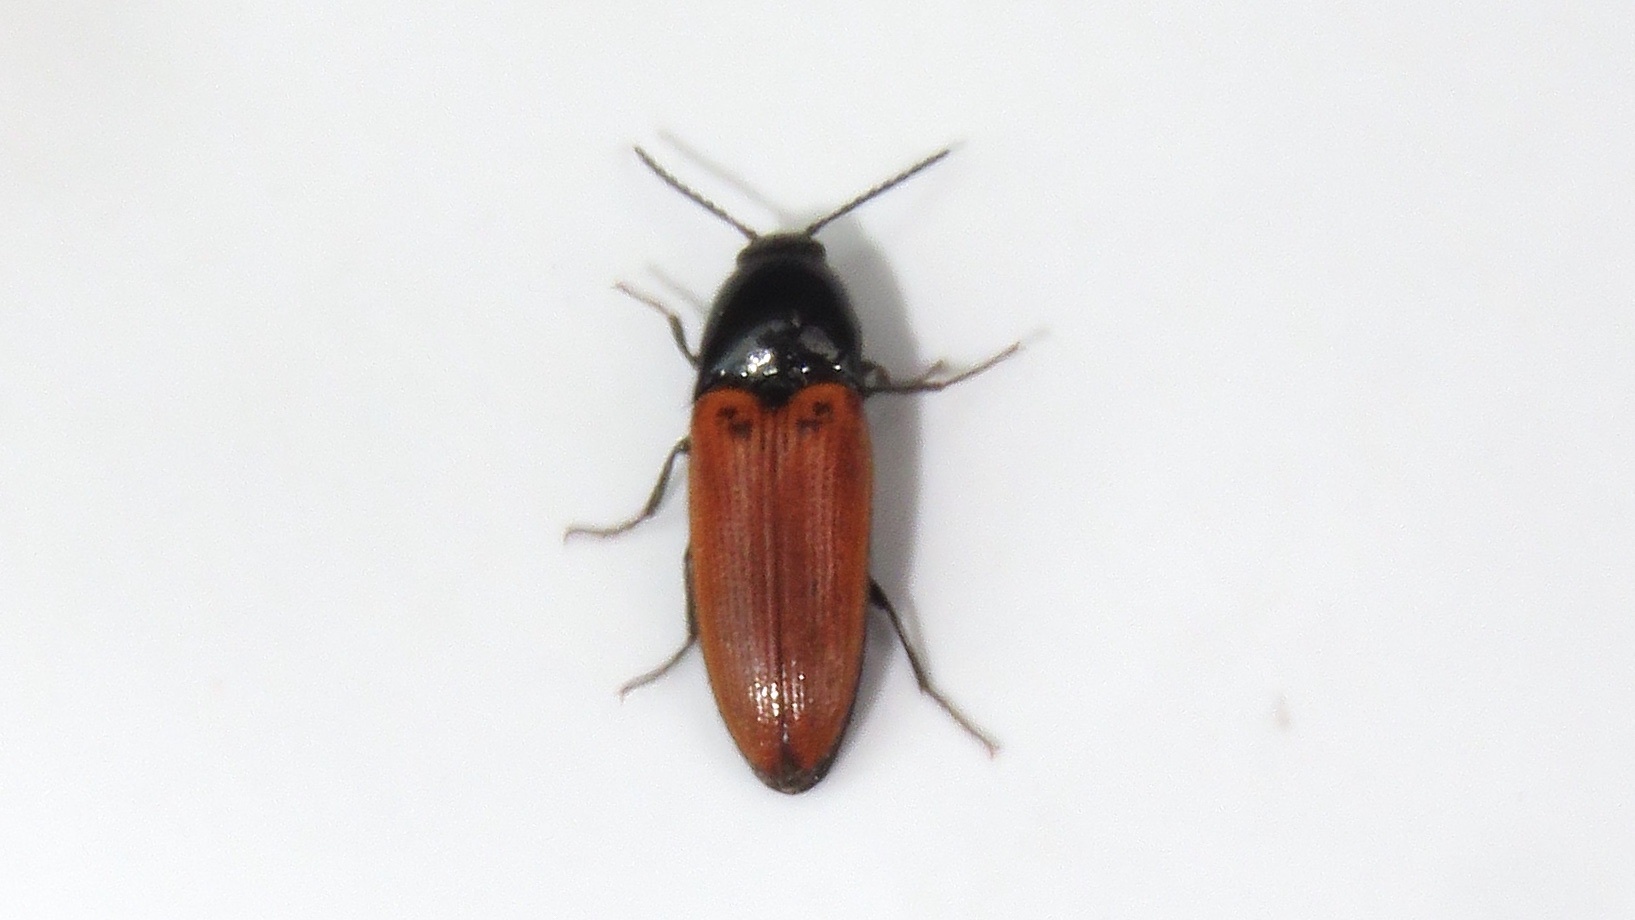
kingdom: Animalia
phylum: Arthropoda
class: Insecta
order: Coleoptera
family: Elateridae
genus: Ampedus
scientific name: Ampedus sanguinipennis
